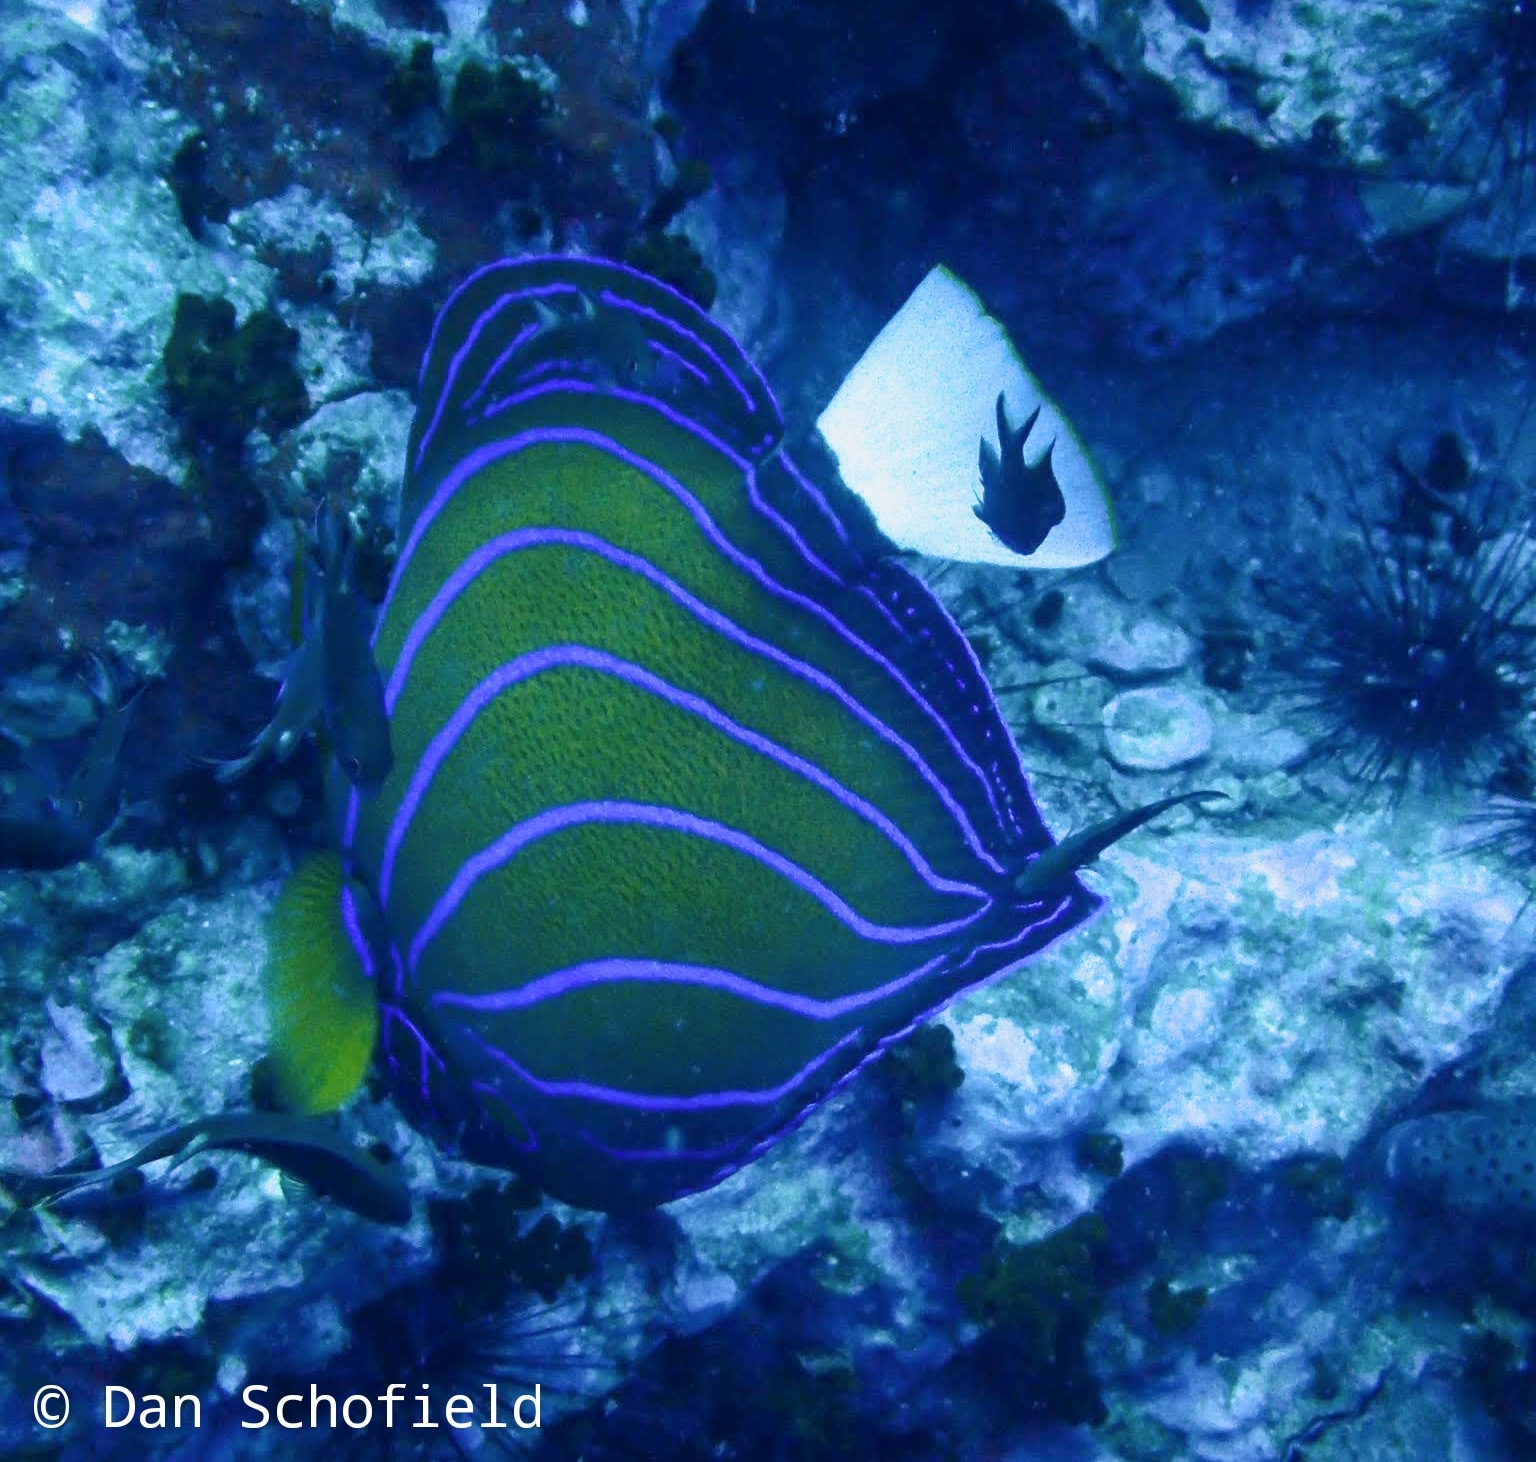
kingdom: Animalia
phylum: Chordata
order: Perciformes
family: Pomacanthidae
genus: Pomacanthus
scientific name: Pomacanthus annularis
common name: Bluering angelfish
